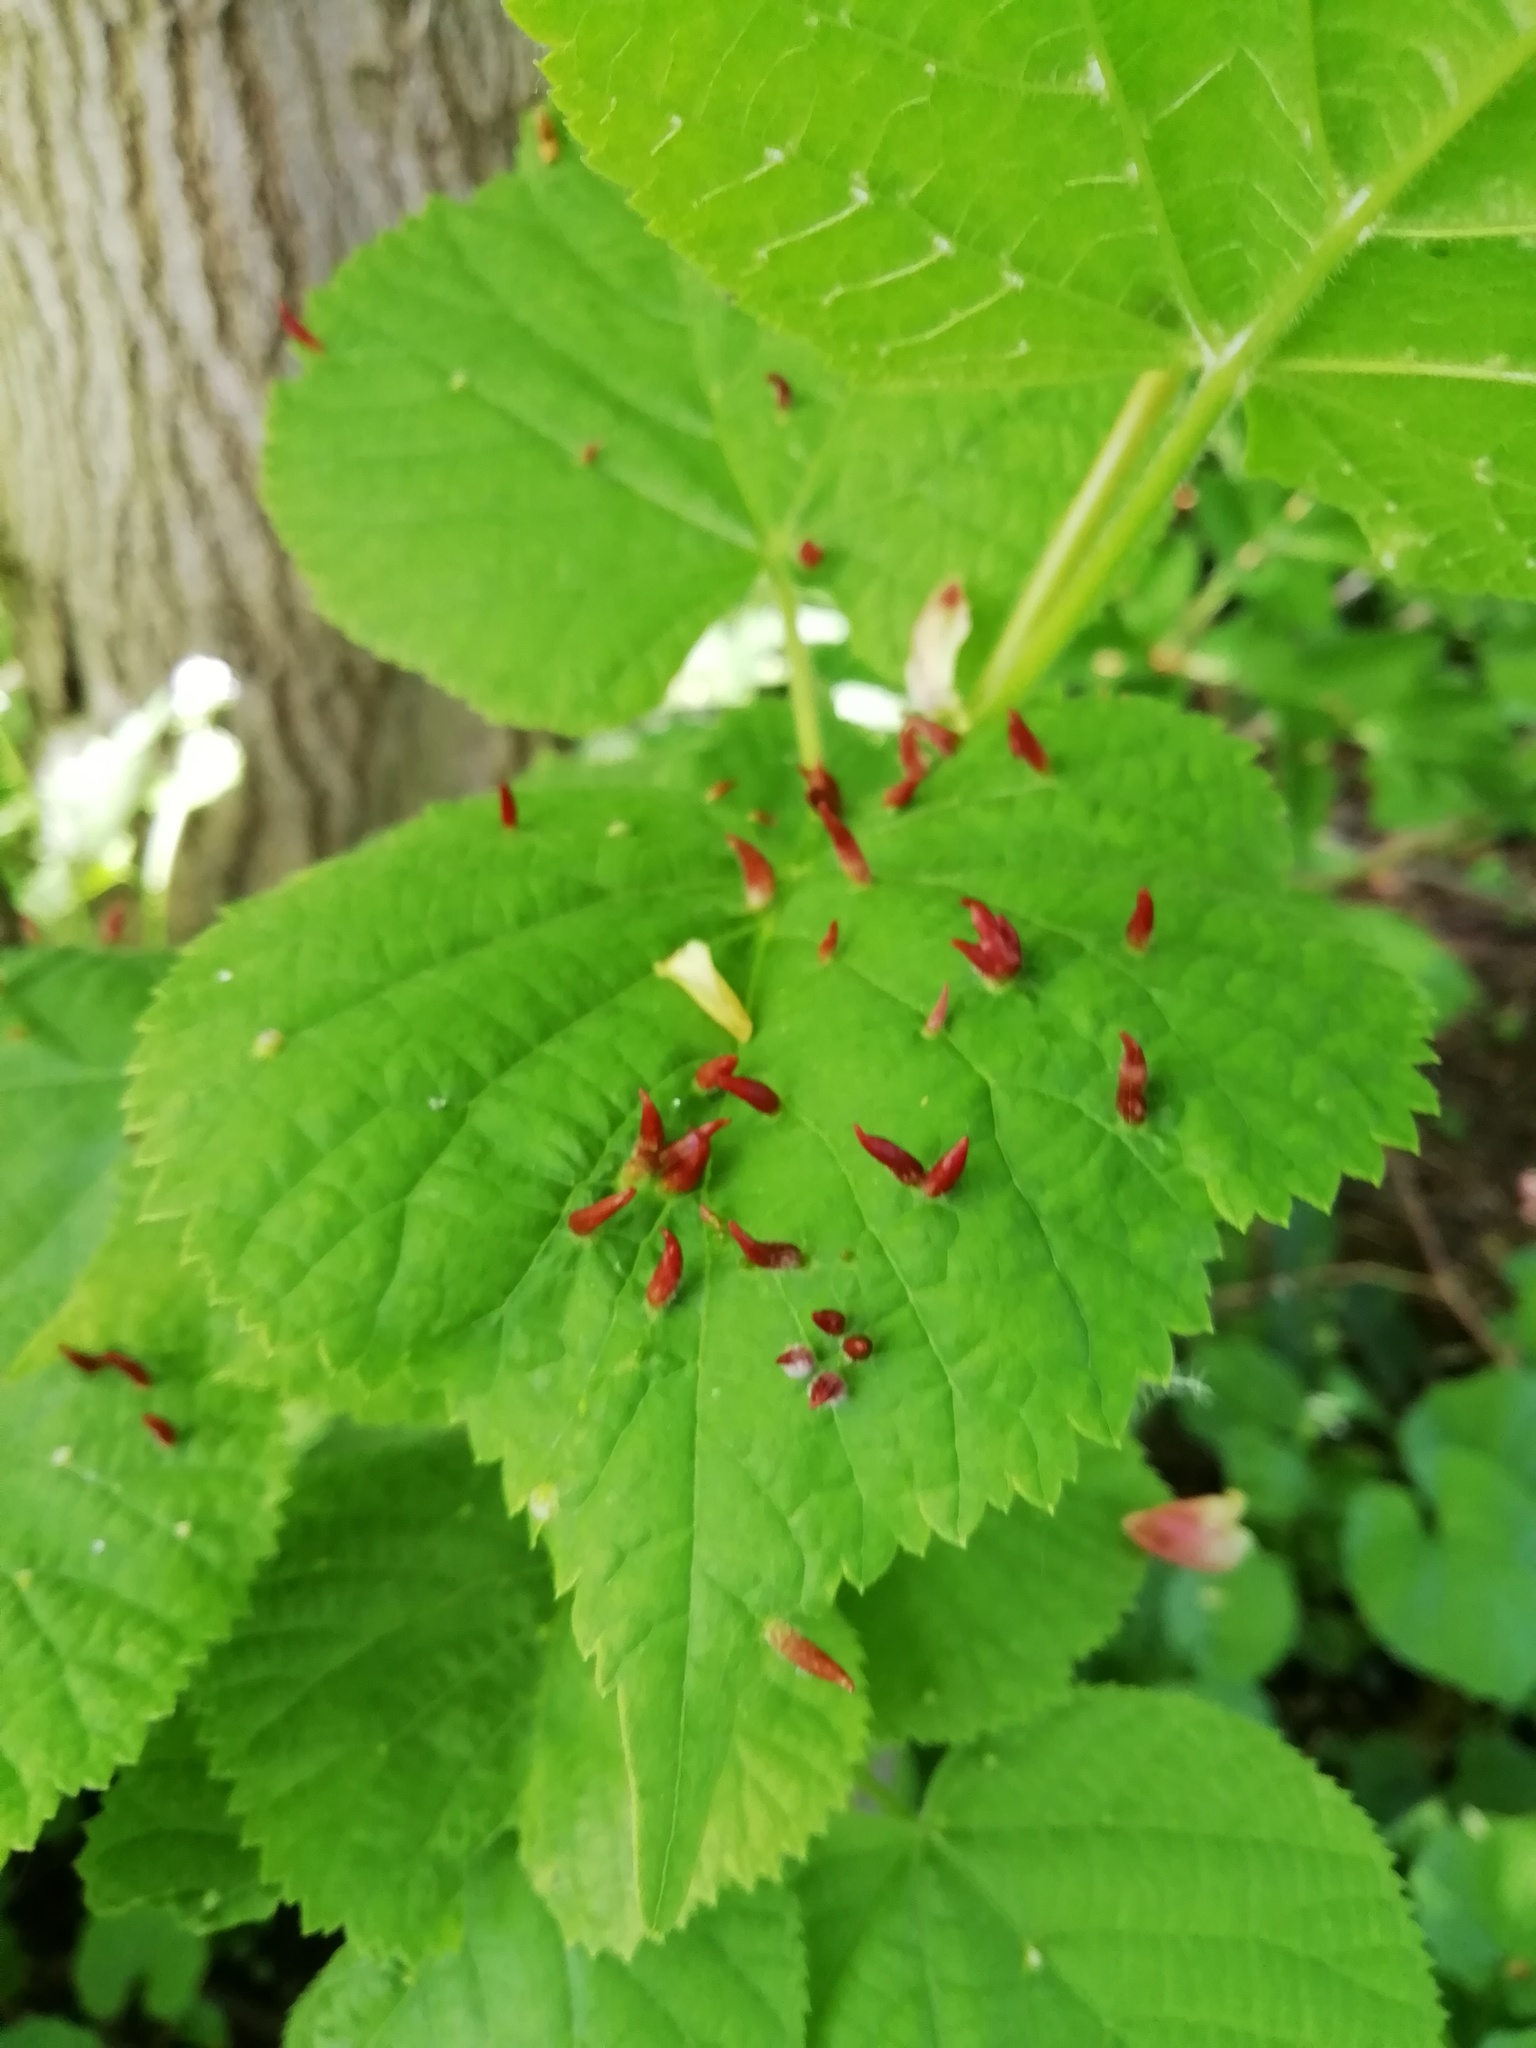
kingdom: Animalia
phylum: Arthropoda
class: Arachnida
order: Trombidiformes
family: Eriophyidae
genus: Eriophyes
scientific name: Eriophyes tiliae
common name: Red nail gall mite
